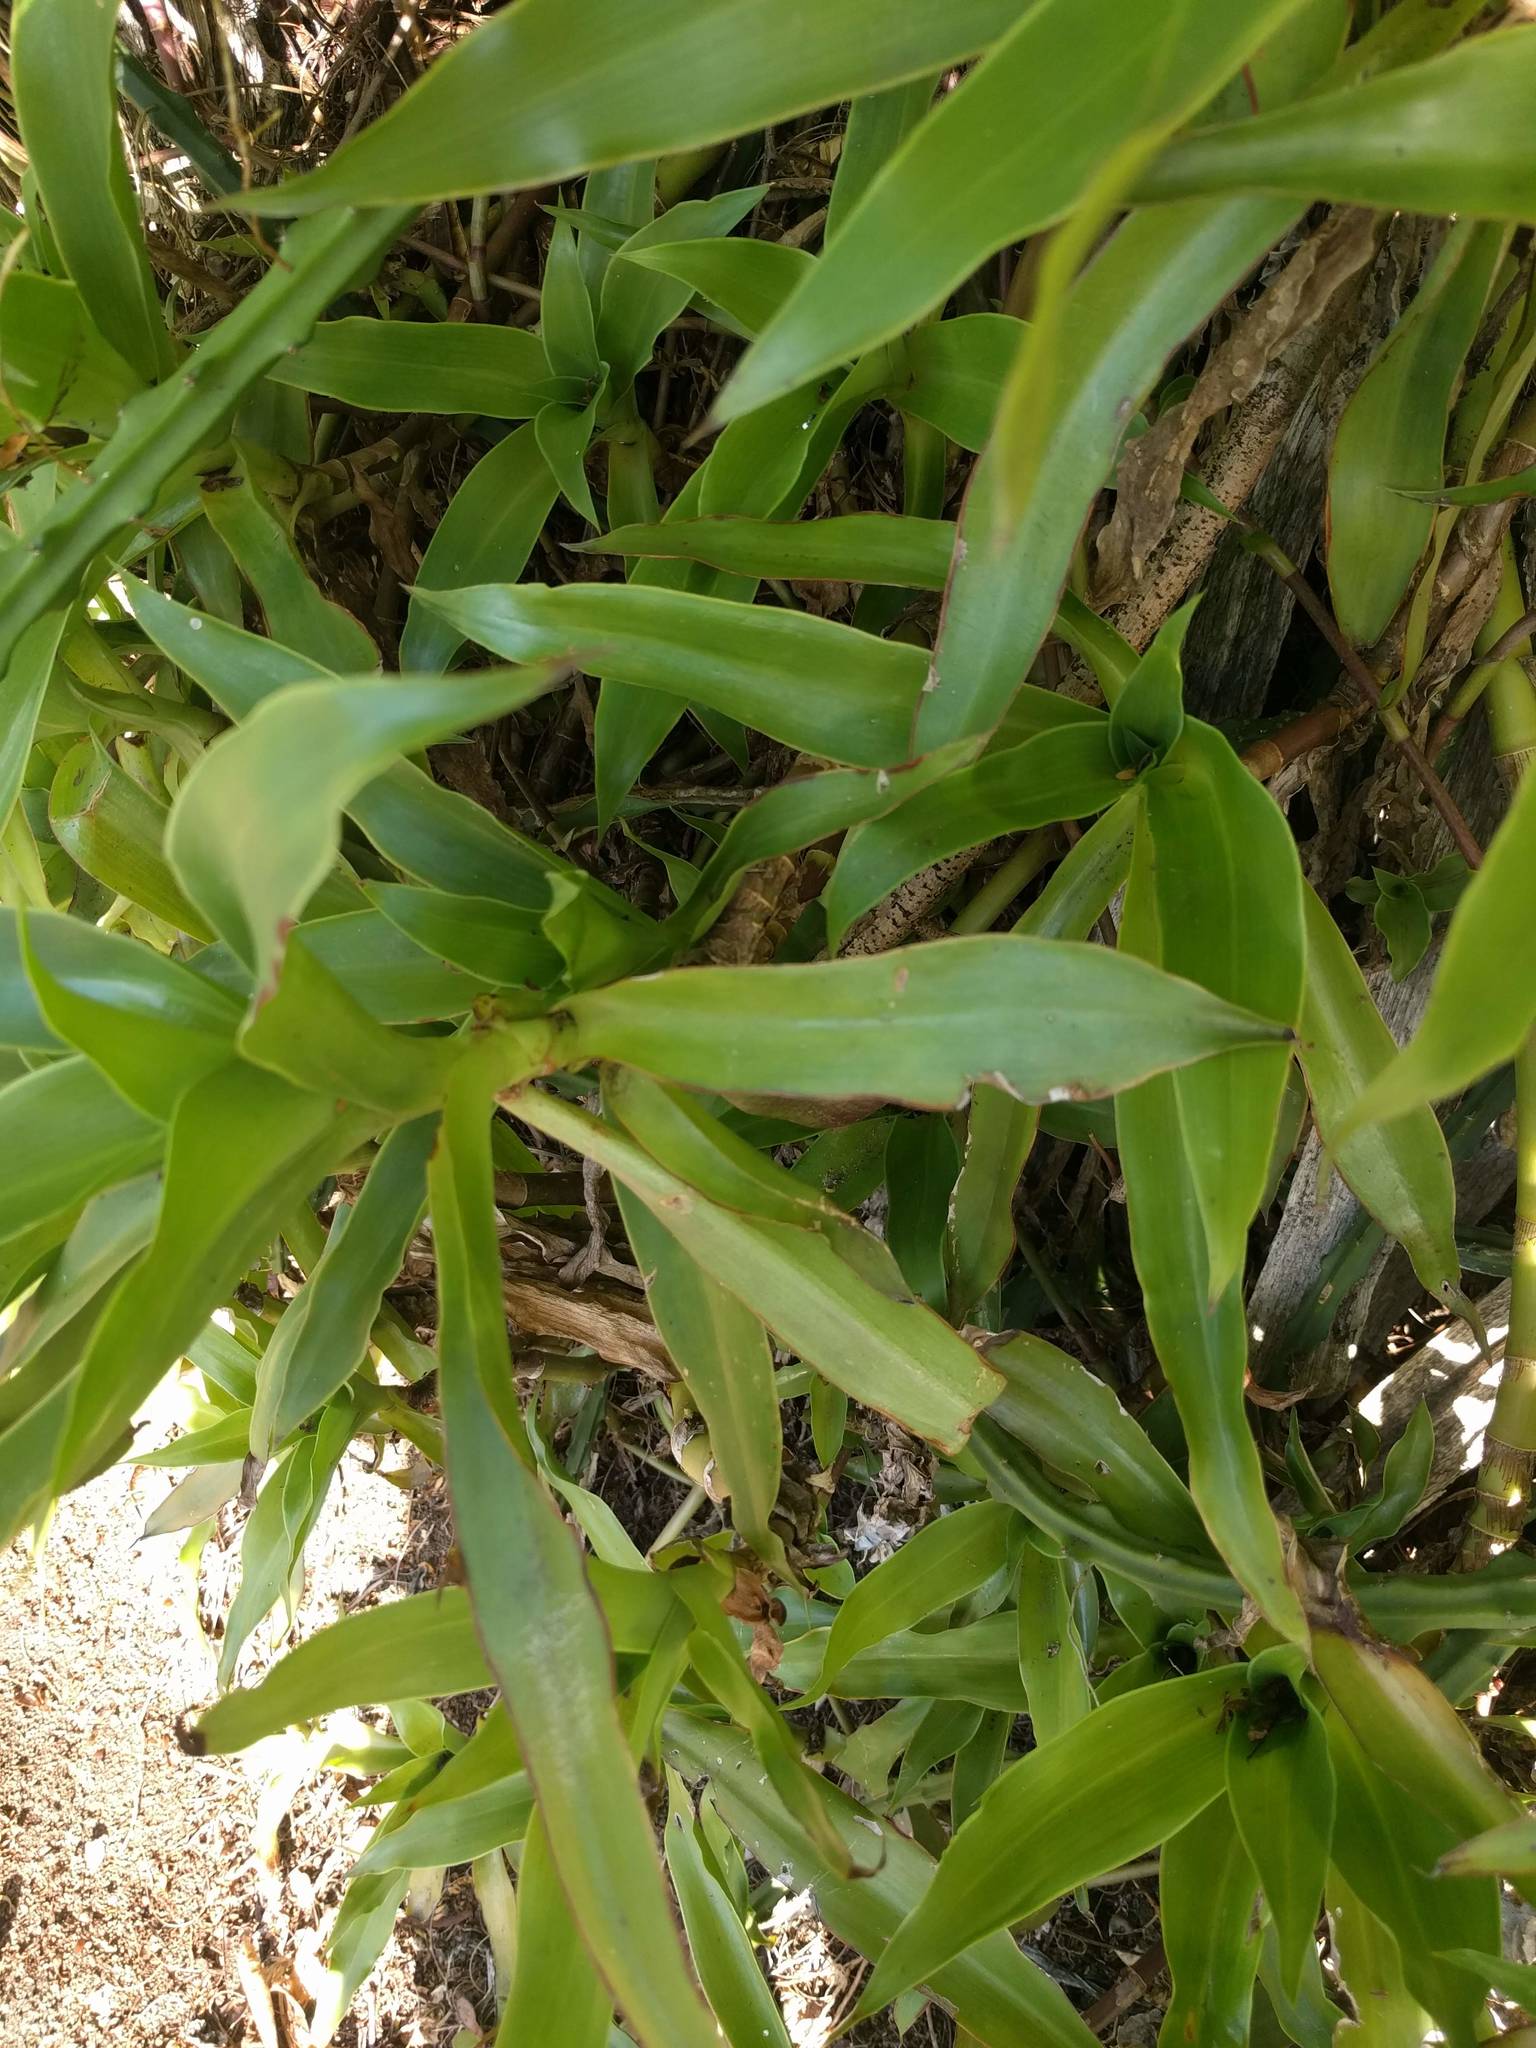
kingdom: Plantae
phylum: Tracheophyta
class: Liliopsida
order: Commelinales
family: Commelinaceae
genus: Callisia
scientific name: Callisia fragrans
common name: Basketplant
